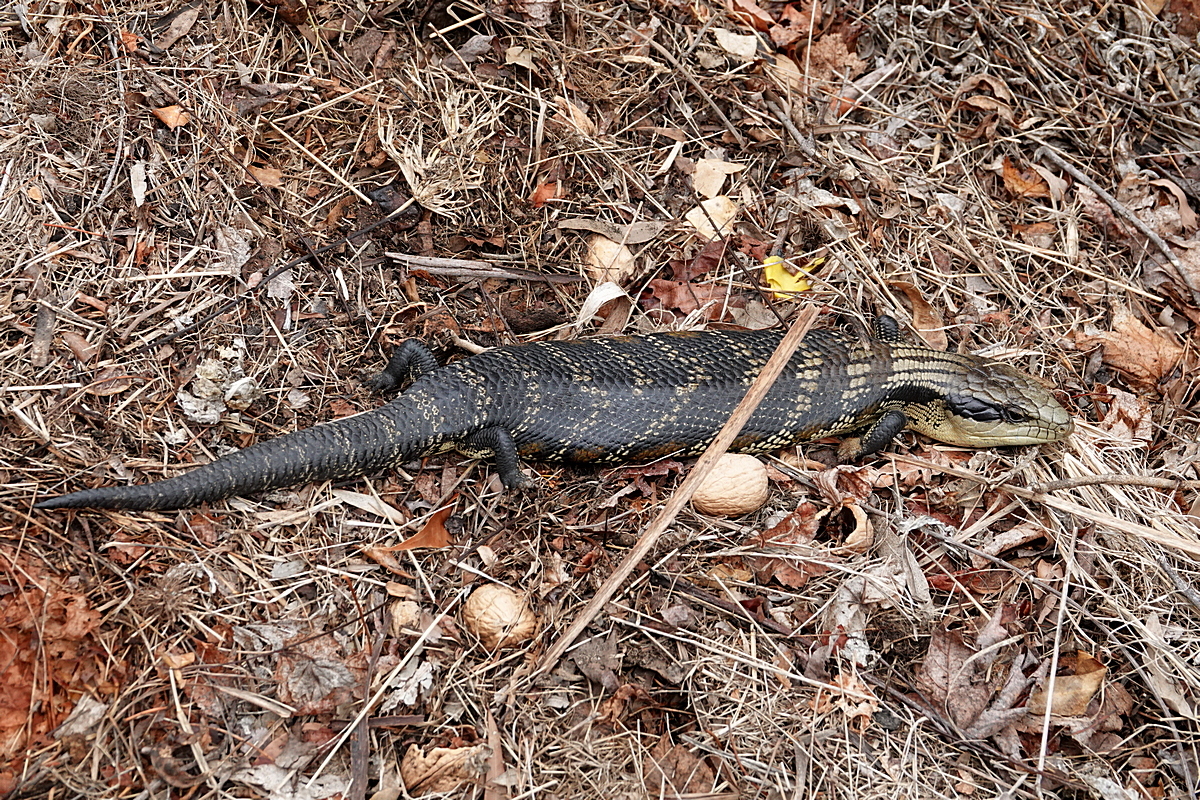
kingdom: Animalia
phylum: Chordata
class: Squamata
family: Scincidae
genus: Tiliqua
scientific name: Tiliqua scincoides
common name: Common bluetongue
